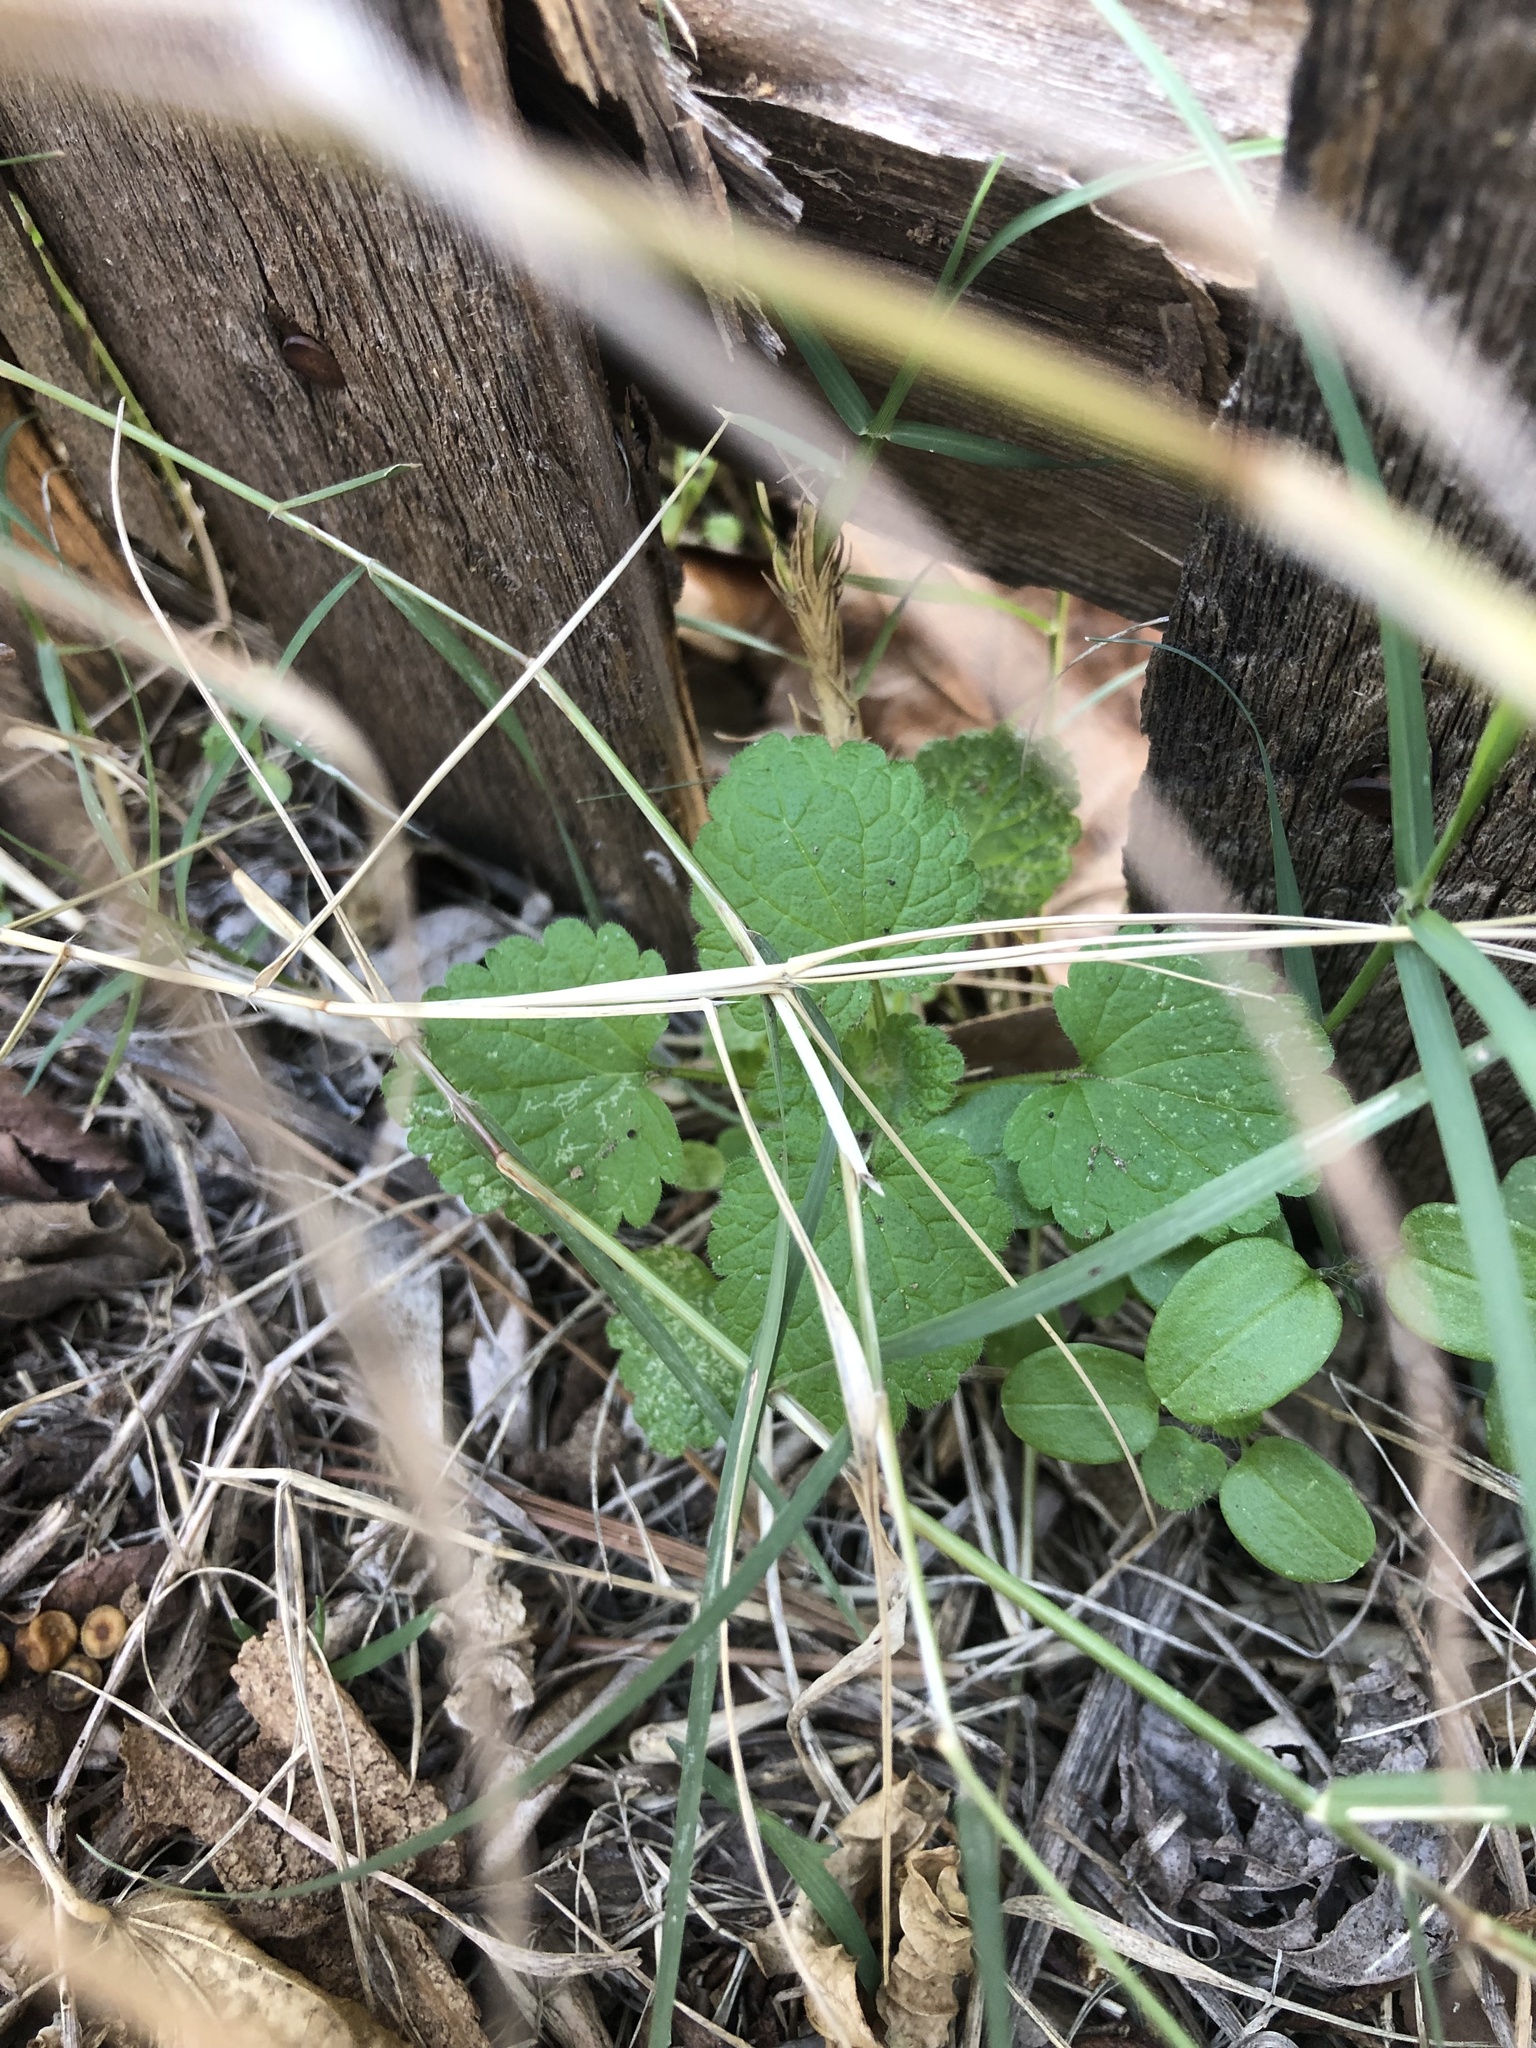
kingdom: Plantae
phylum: Tracheophyta
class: Magnoliopsida
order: Lamiales
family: Lamiaceae
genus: Lamium
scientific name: Lamium purpureum
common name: Red dead-nettle
